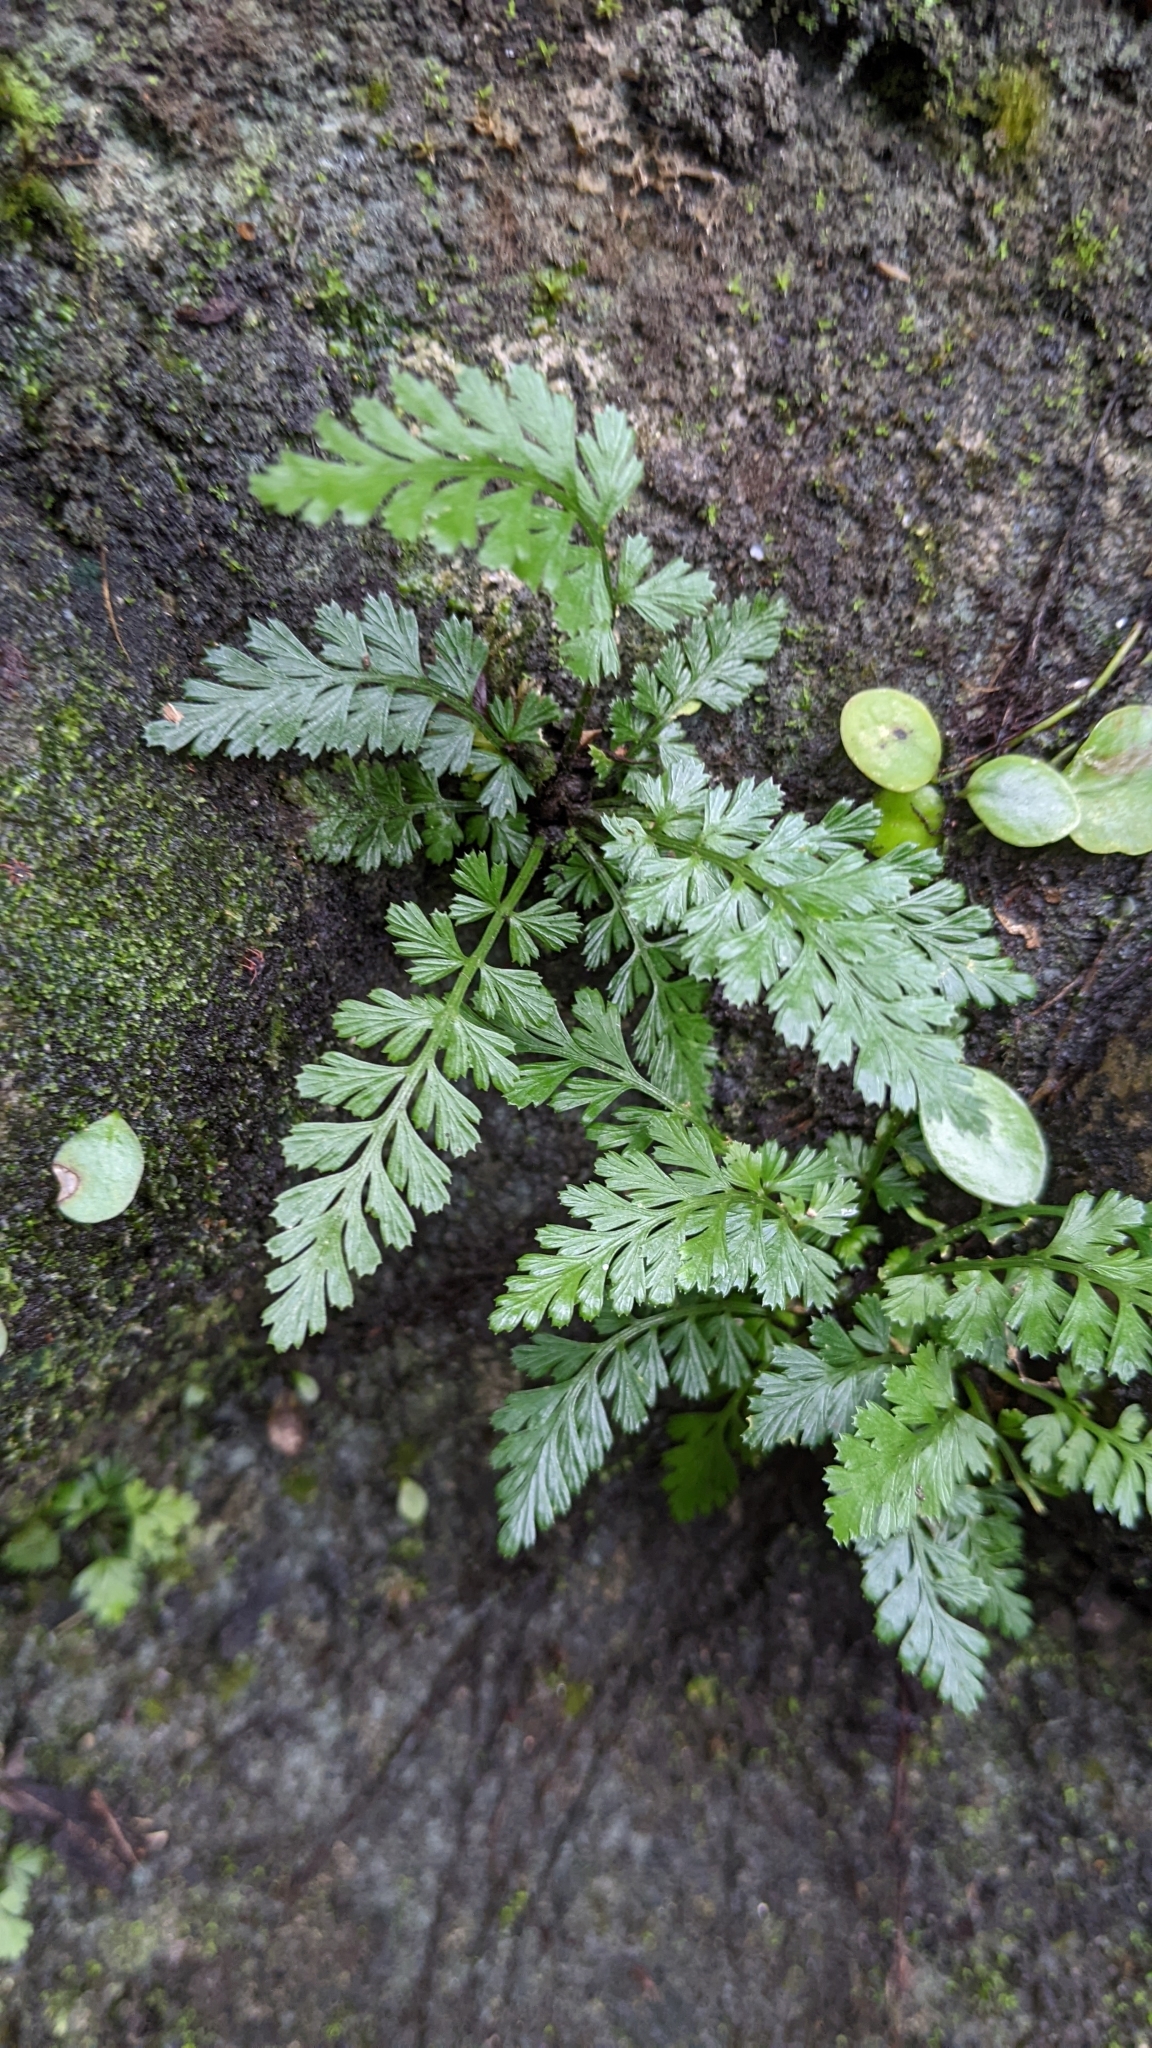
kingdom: Plantae
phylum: Tracheophyta
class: Polypodiopsida
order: Polypodiales
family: Aspleniaceae
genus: Asplenium
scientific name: Asplenium sarelii
